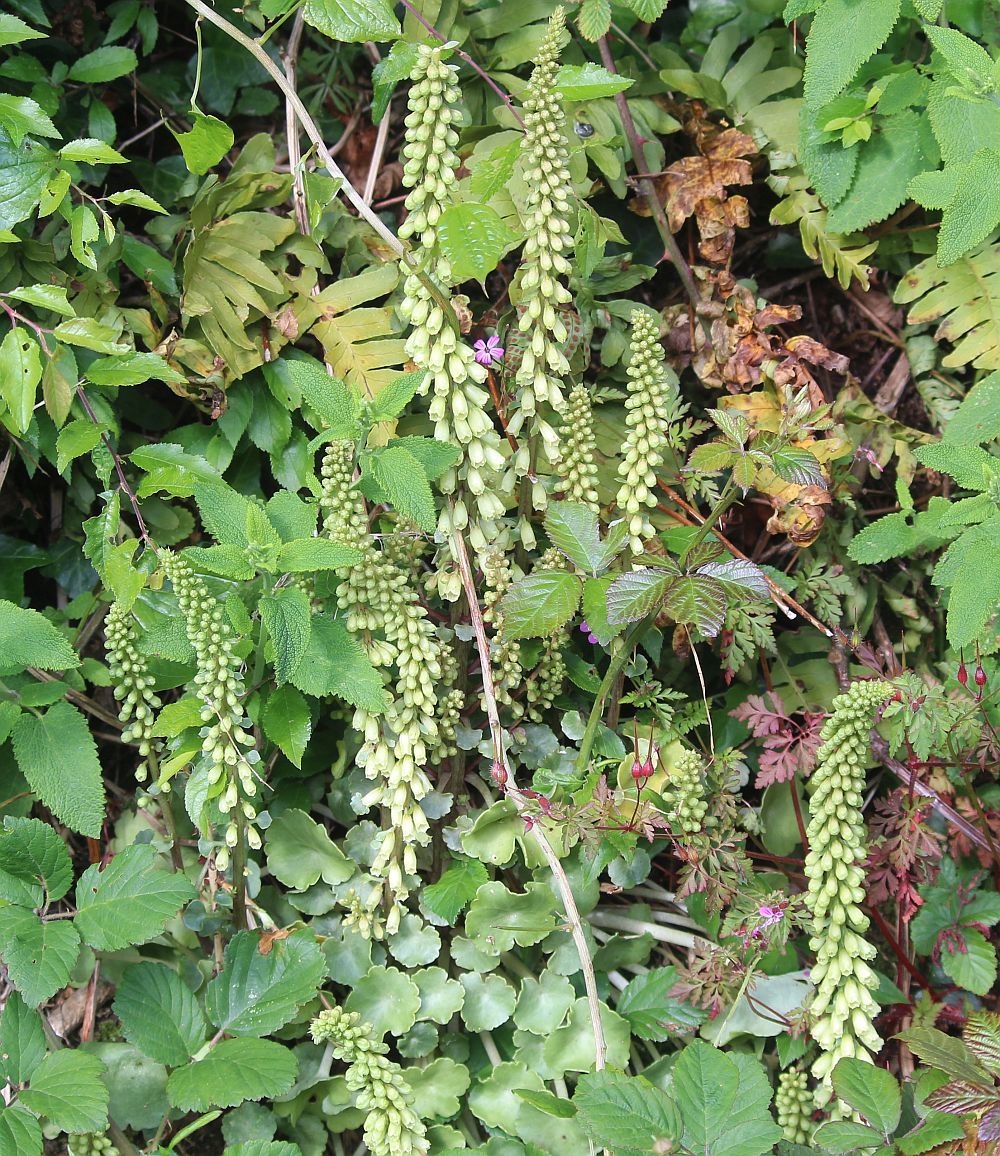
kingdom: Plantae
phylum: Tracheophyta
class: Magnoliopsida
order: Saxifragales
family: Crassulaceae
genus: Umbilicus
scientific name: Umbilicus rupestris
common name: Navelwort
